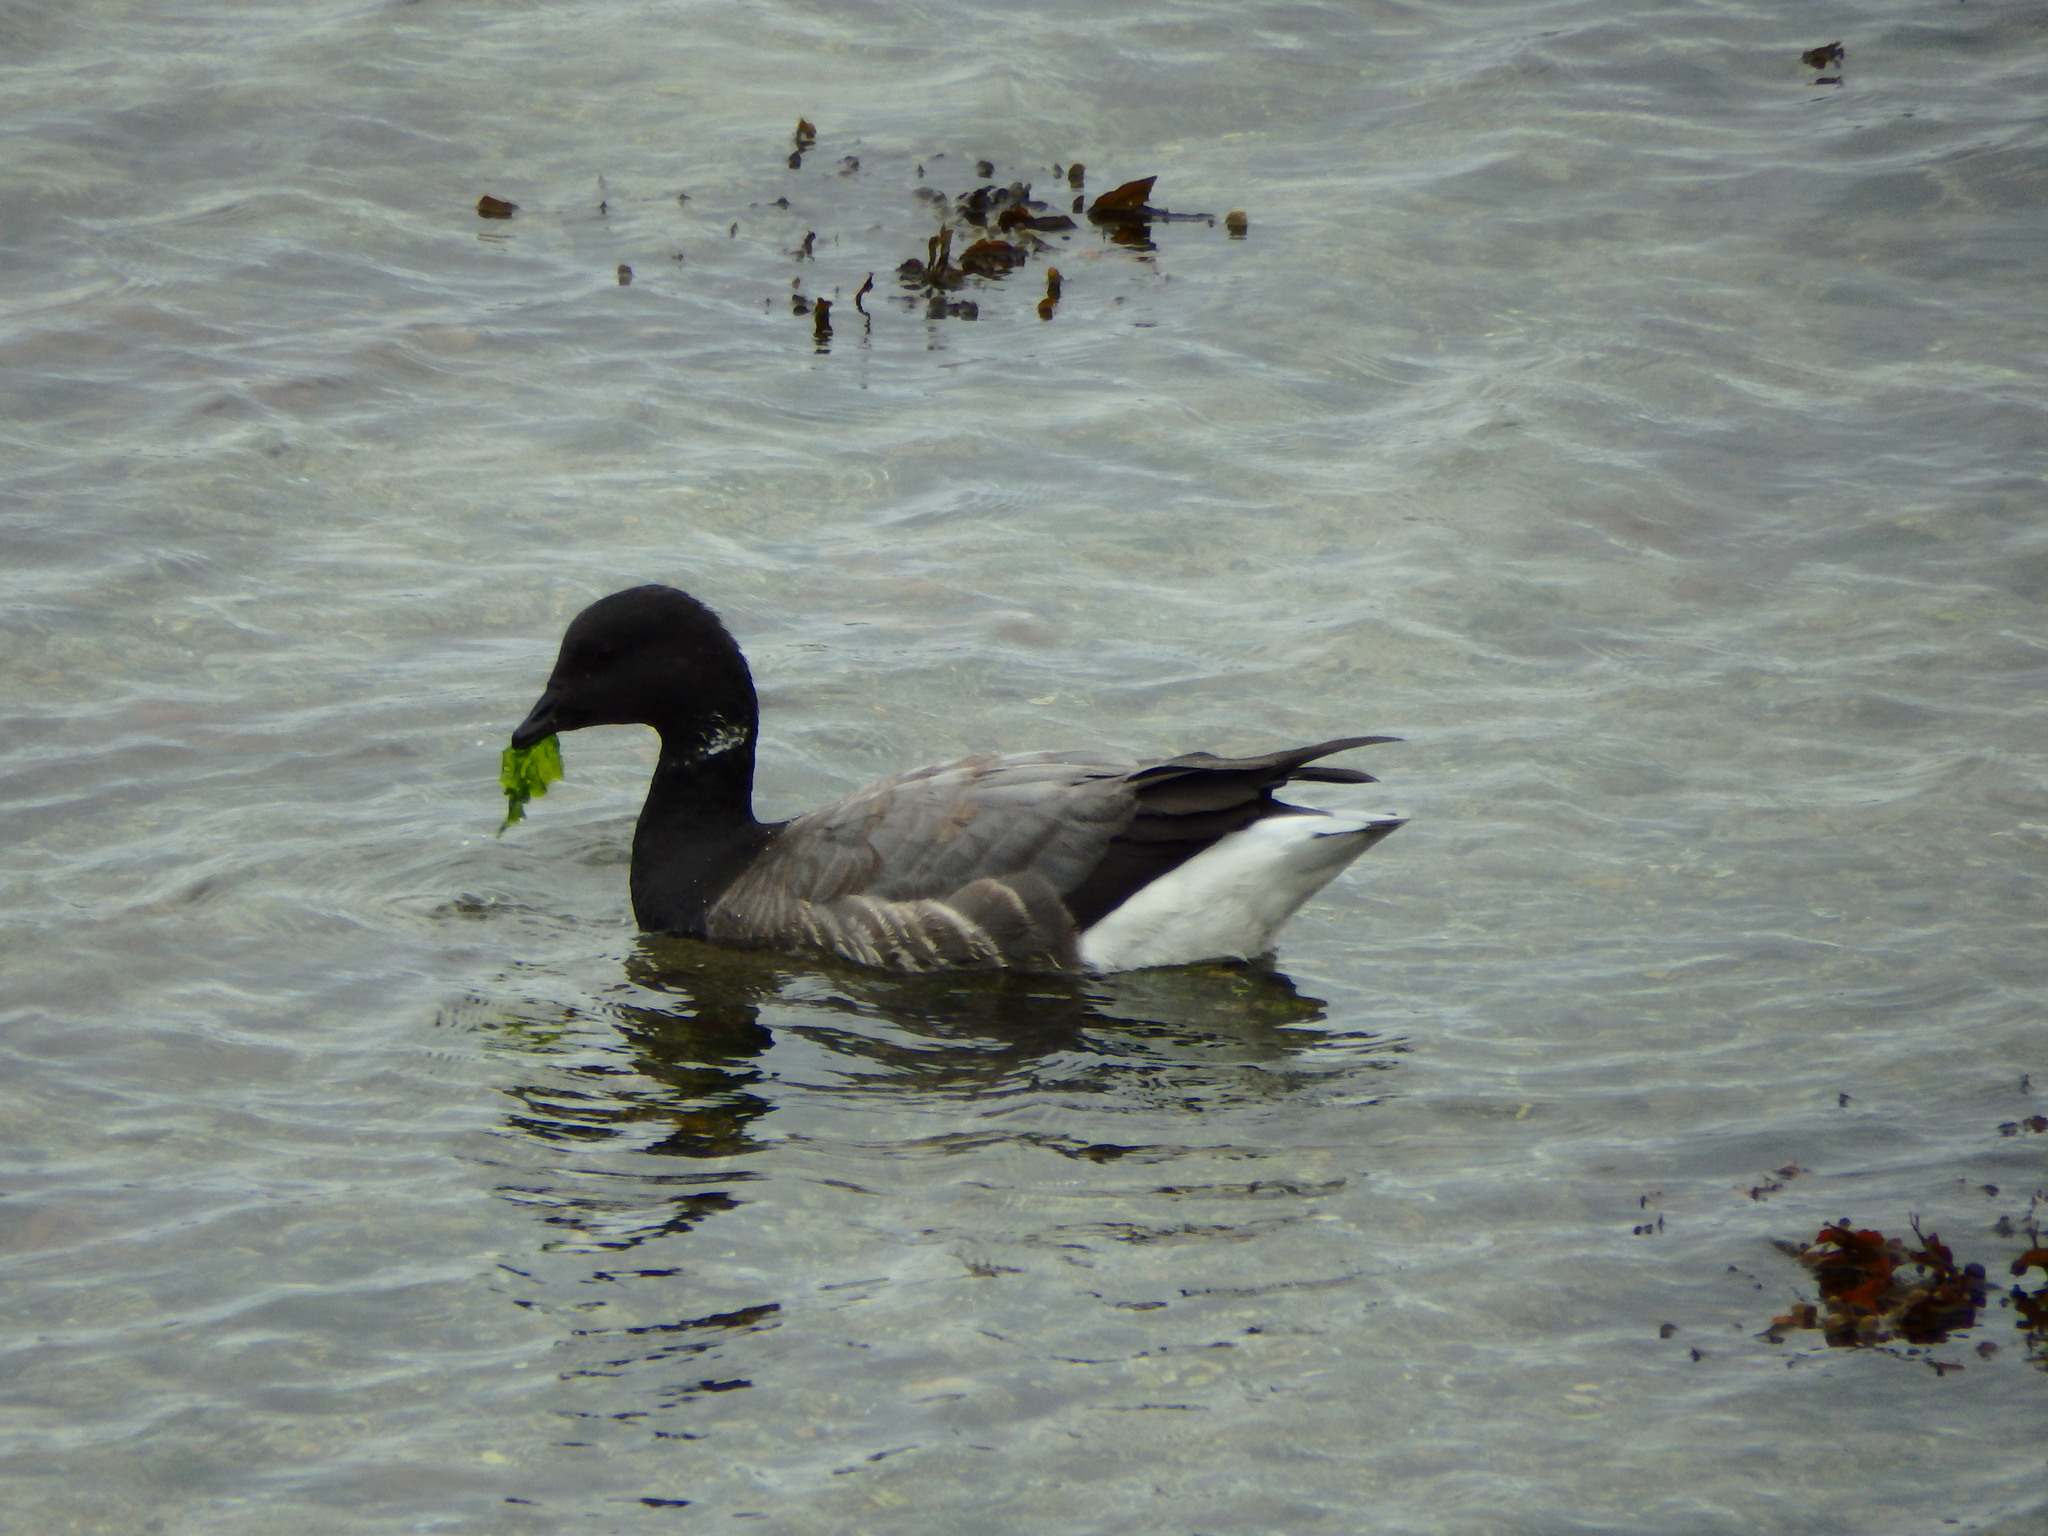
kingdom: Animalia
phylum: Chordata
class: Aves
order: Anseriformes
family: Anatidae
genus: Branta
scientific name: Branta bernicla
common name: Brant goose
